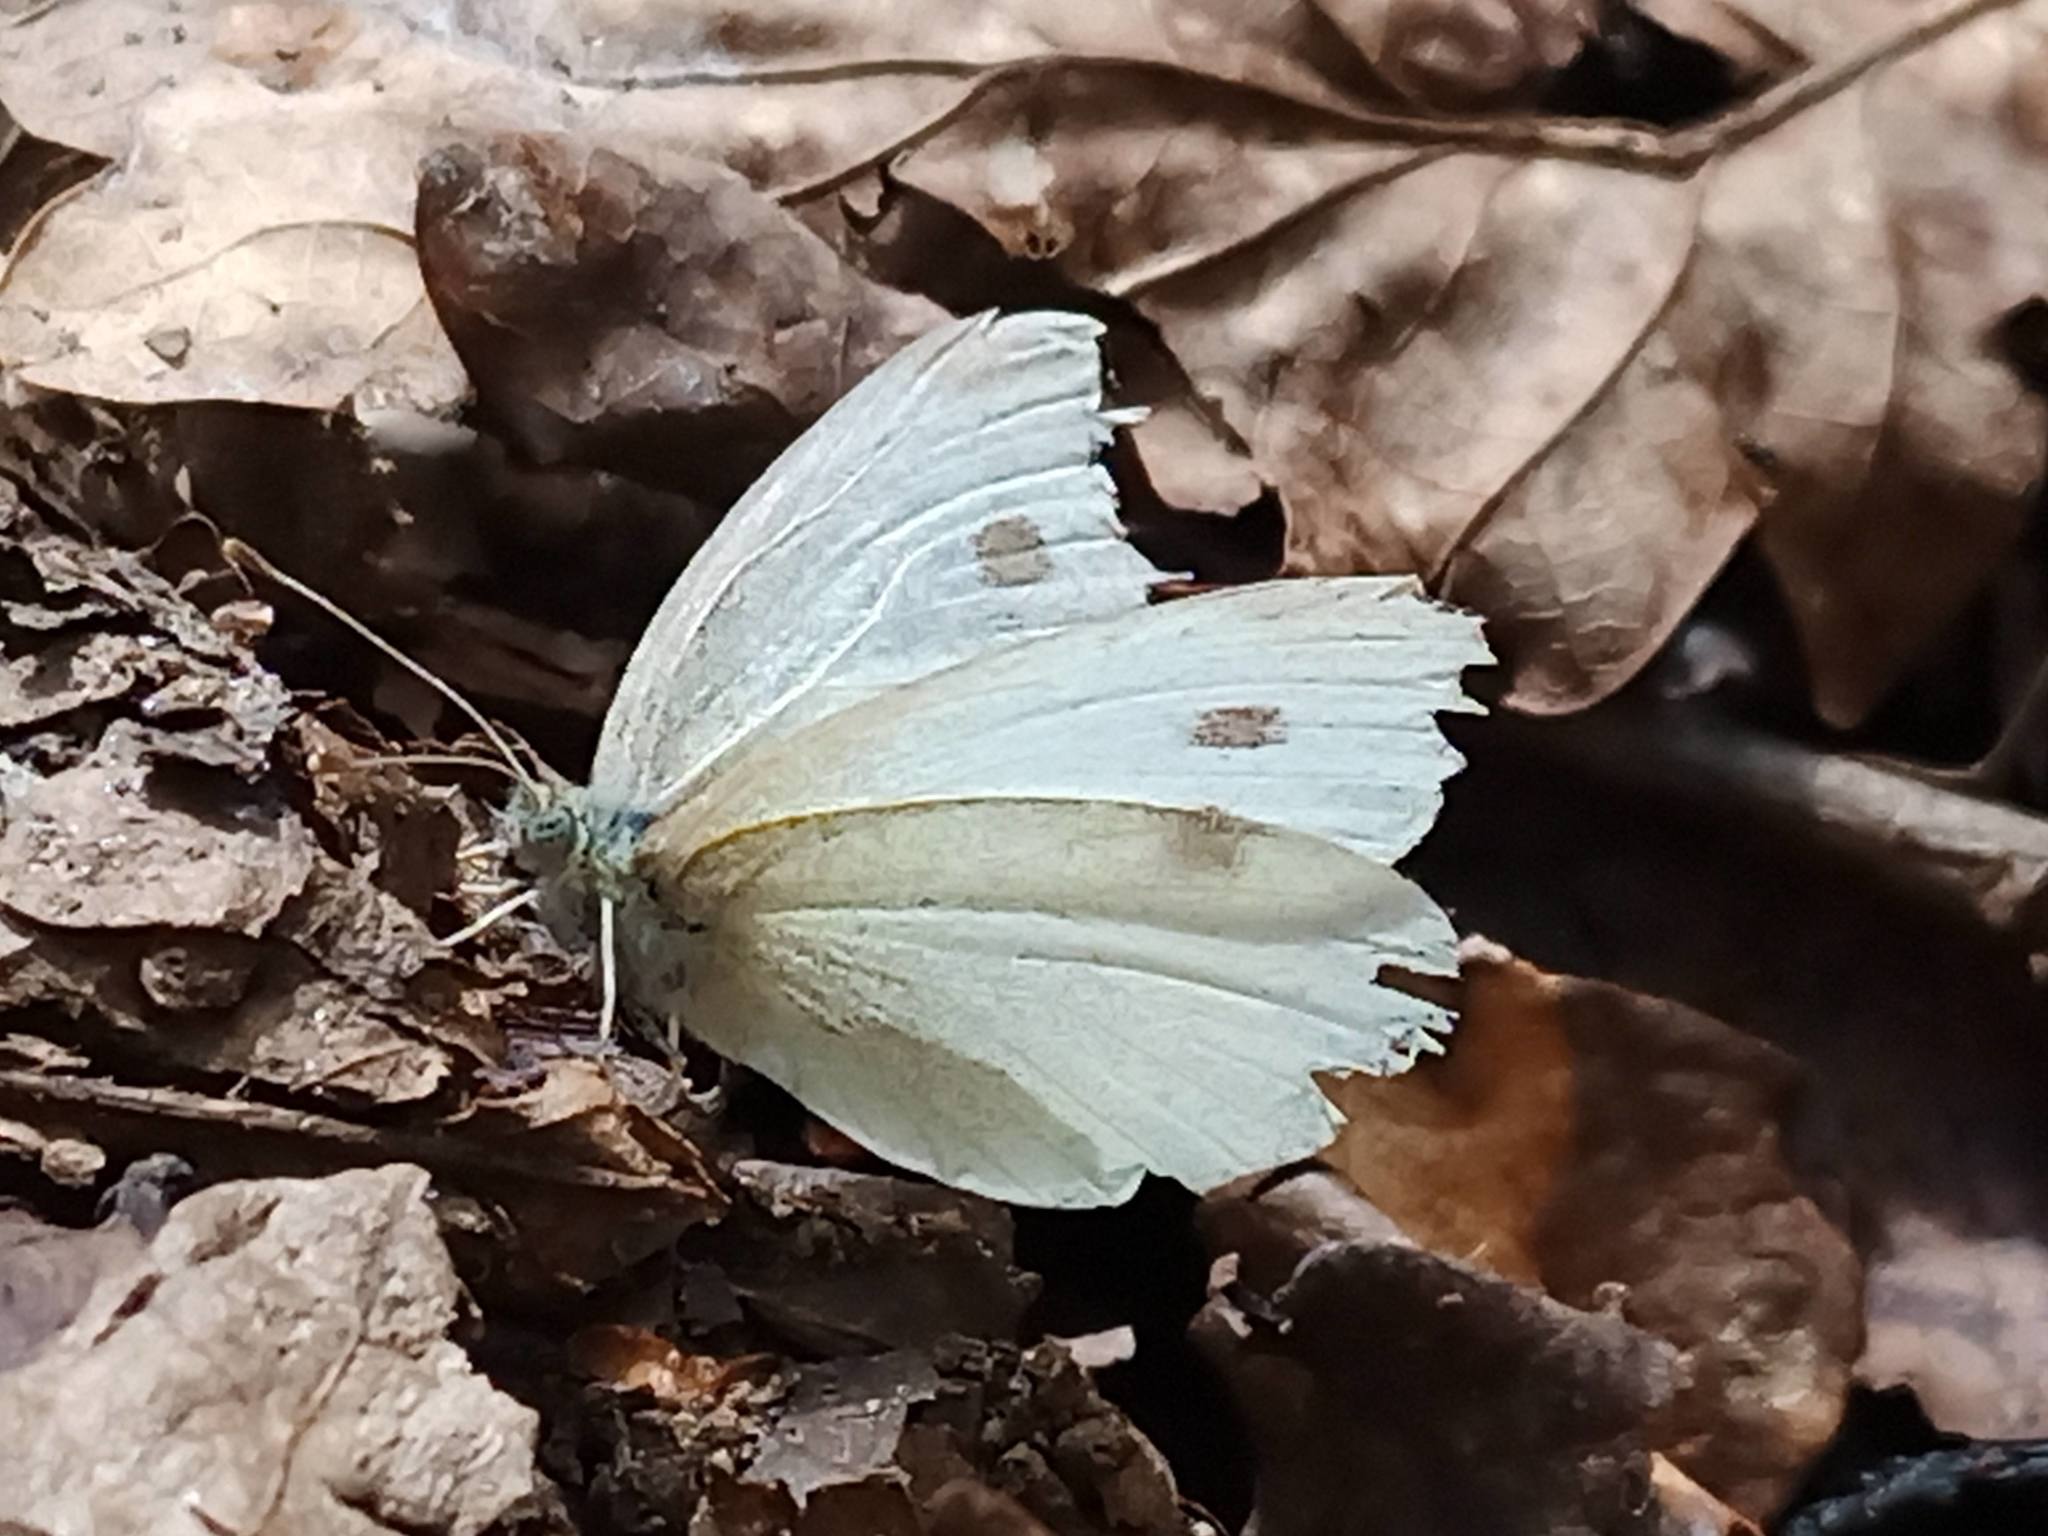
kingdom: Animalia
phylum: Arthropoda
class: Insecta
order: Lepidoptera
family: Pieridae
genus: Pieris
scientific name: Pieris rapae
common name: Small white
